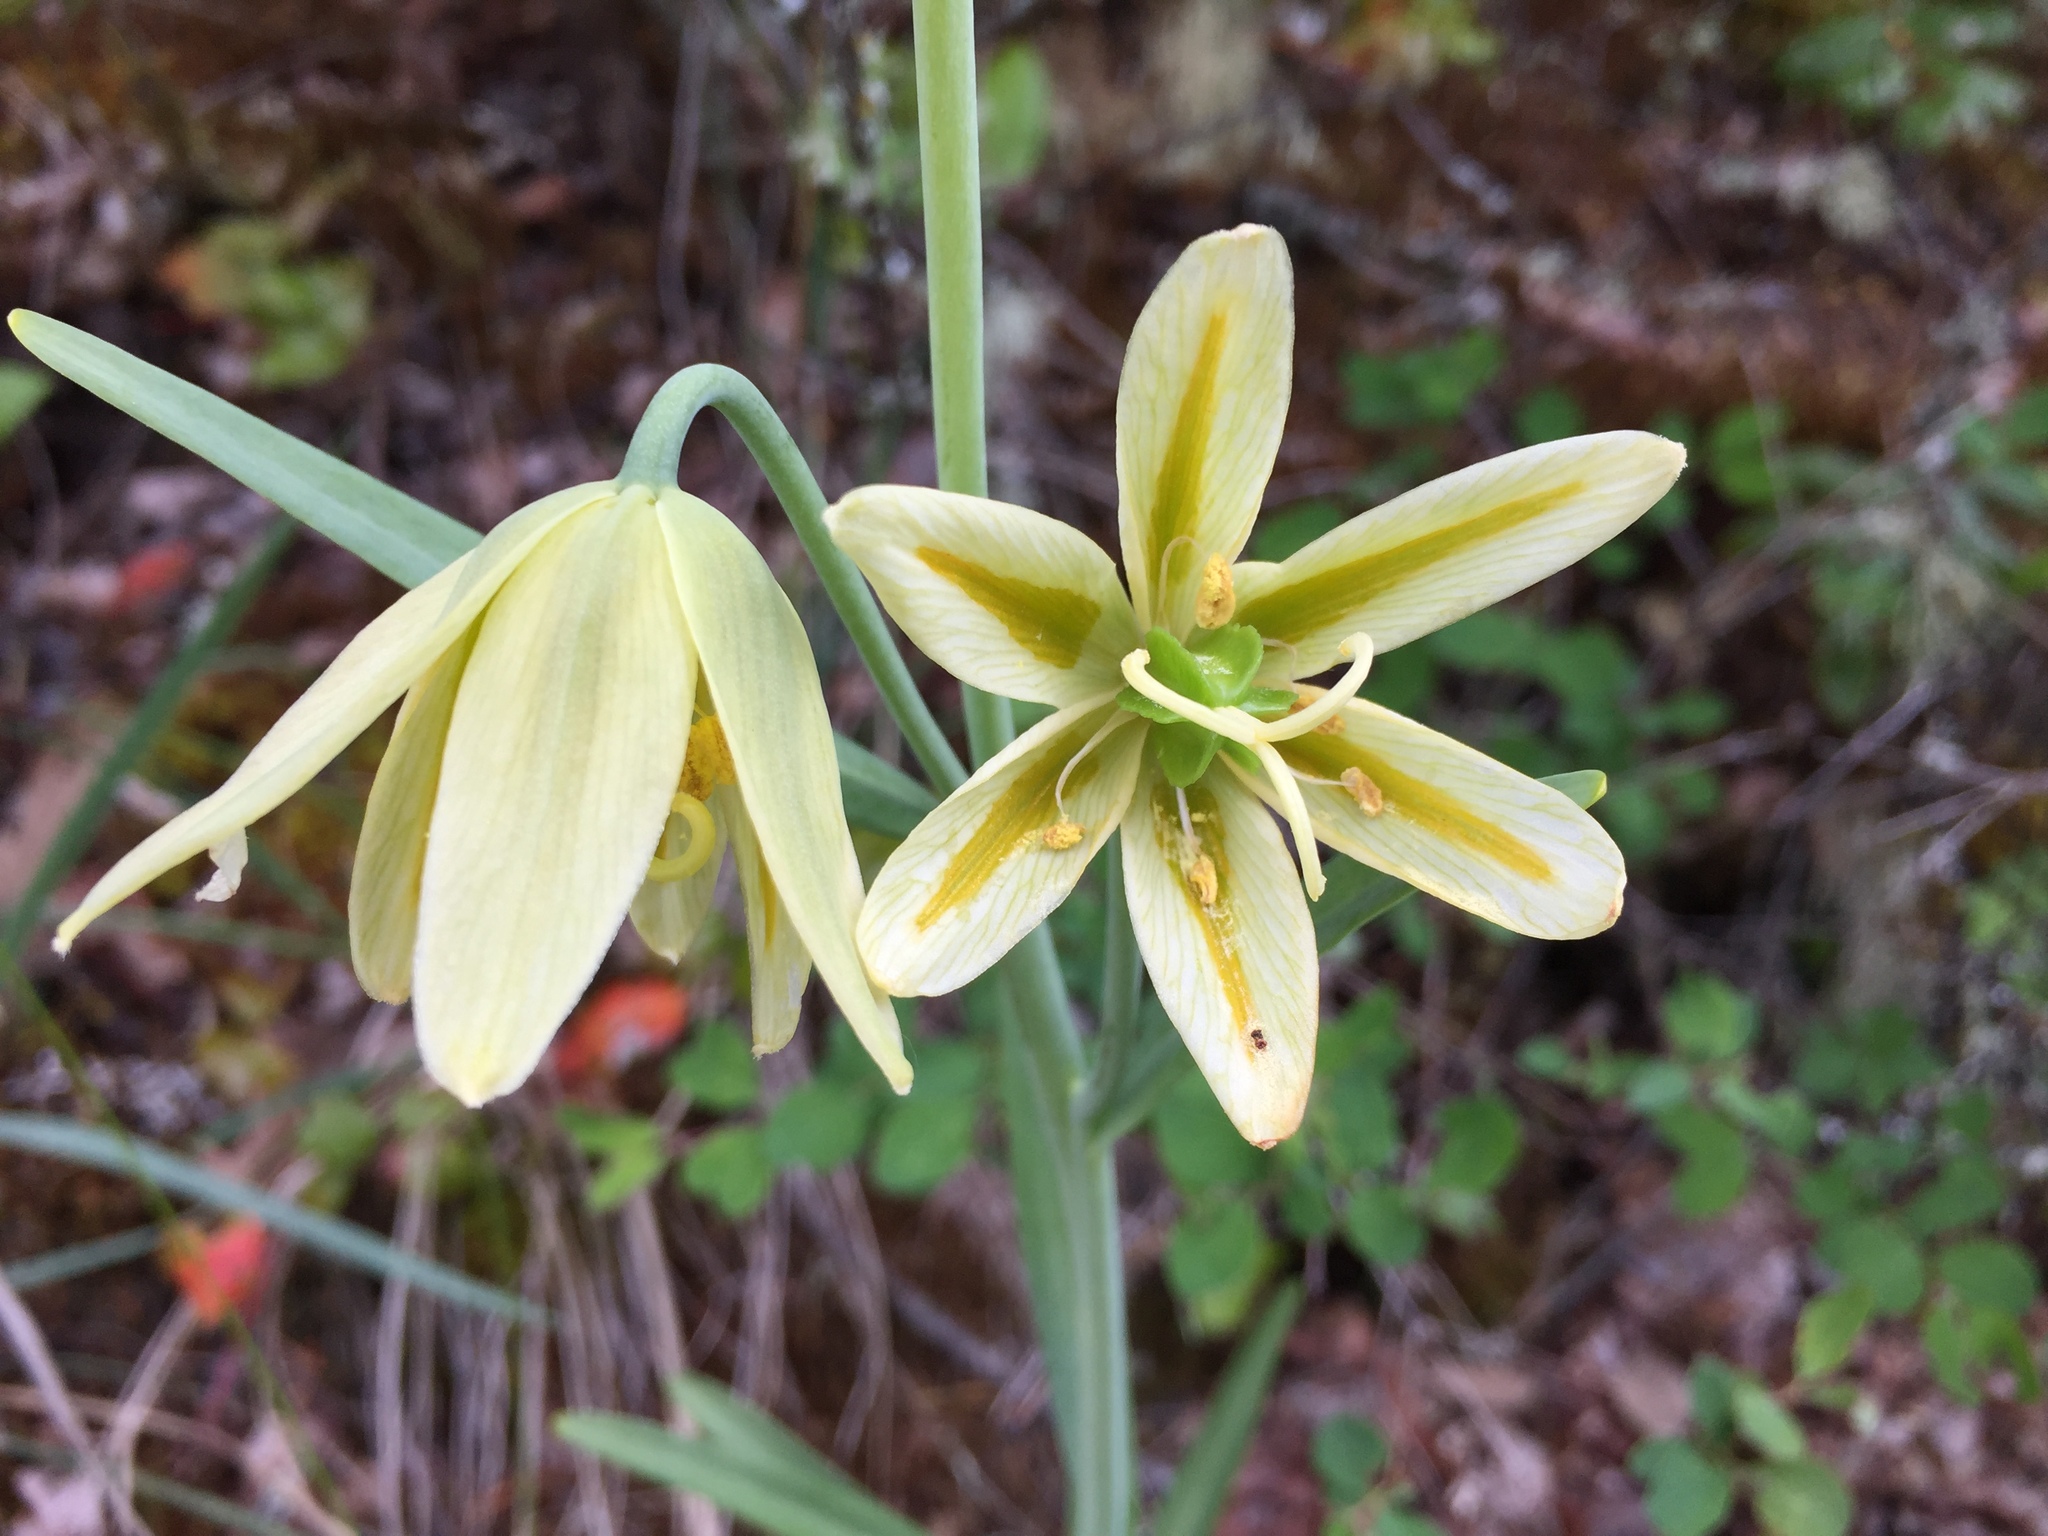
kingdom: Plantae
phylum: Tracheophyta
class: Liliopsida
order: Liliales
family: Liliaceae
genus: Fritillaria
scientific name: Fritillaria affinis
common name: Ojai fritillary
